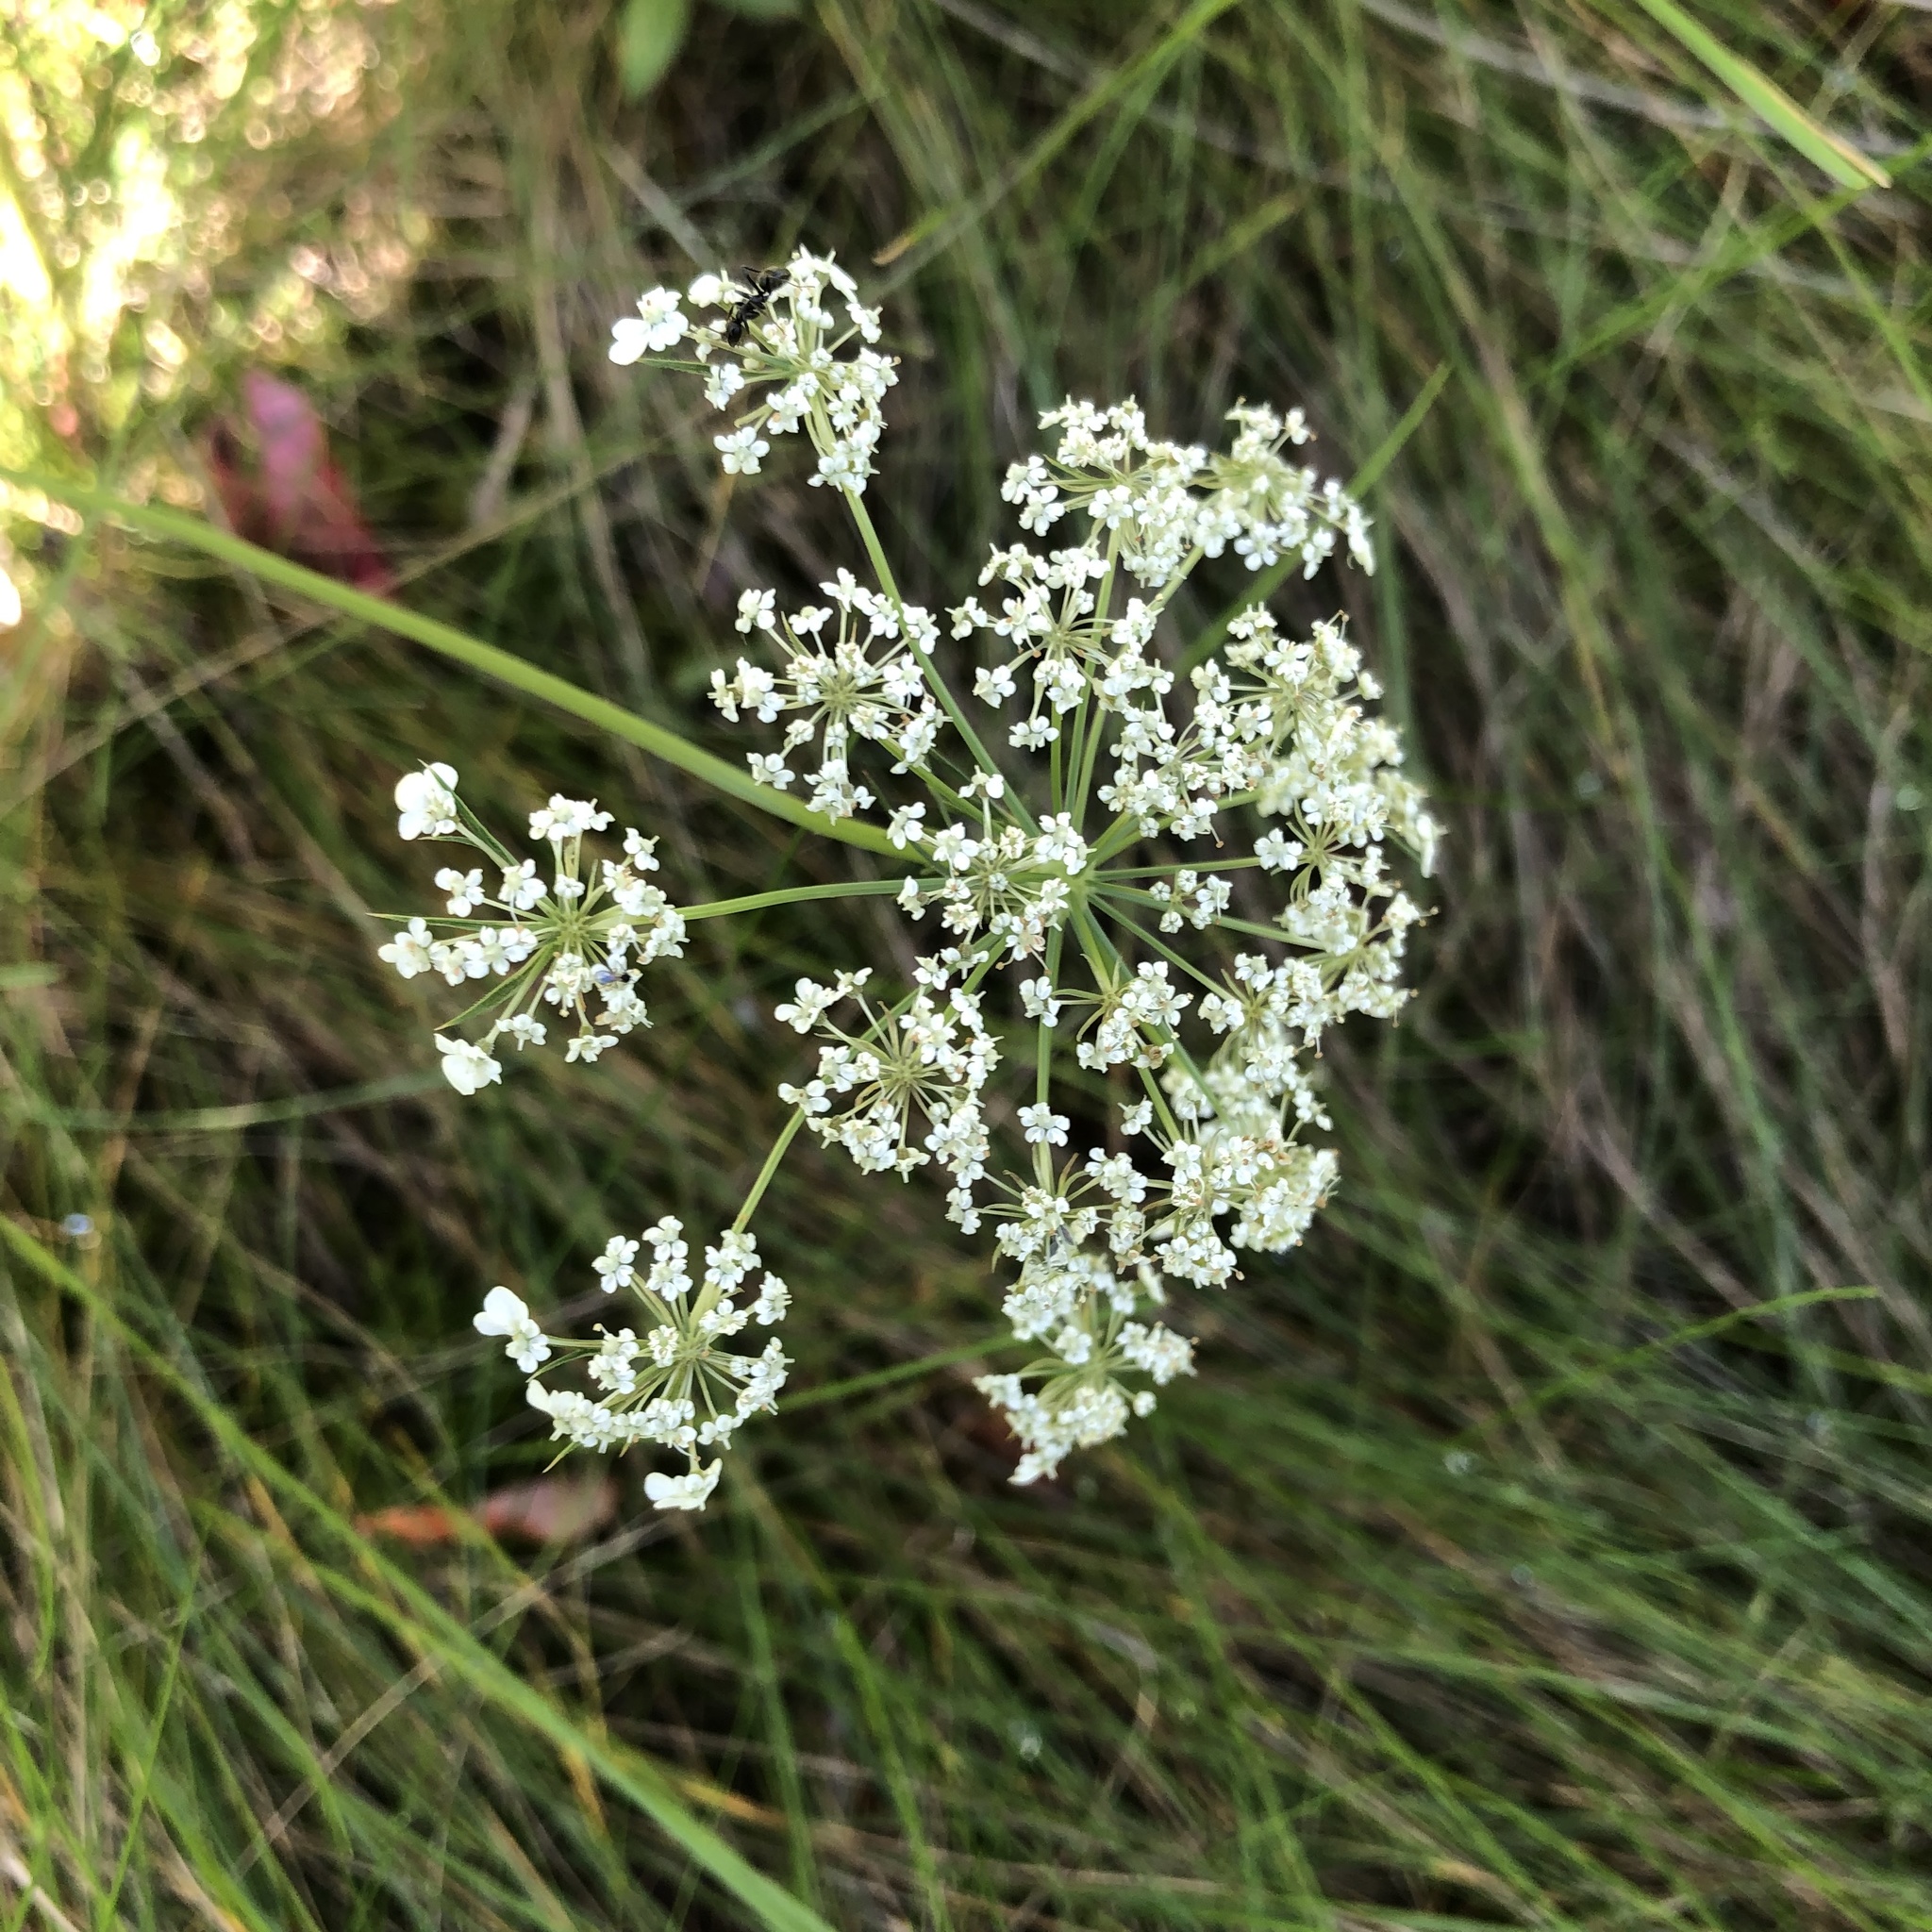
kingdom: Plantae
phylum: Tracheophyta
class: Magnoliopsida
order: Apiales
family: Apiaceae
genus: Daucus
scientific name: Daucus carota
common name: Wild carrot
